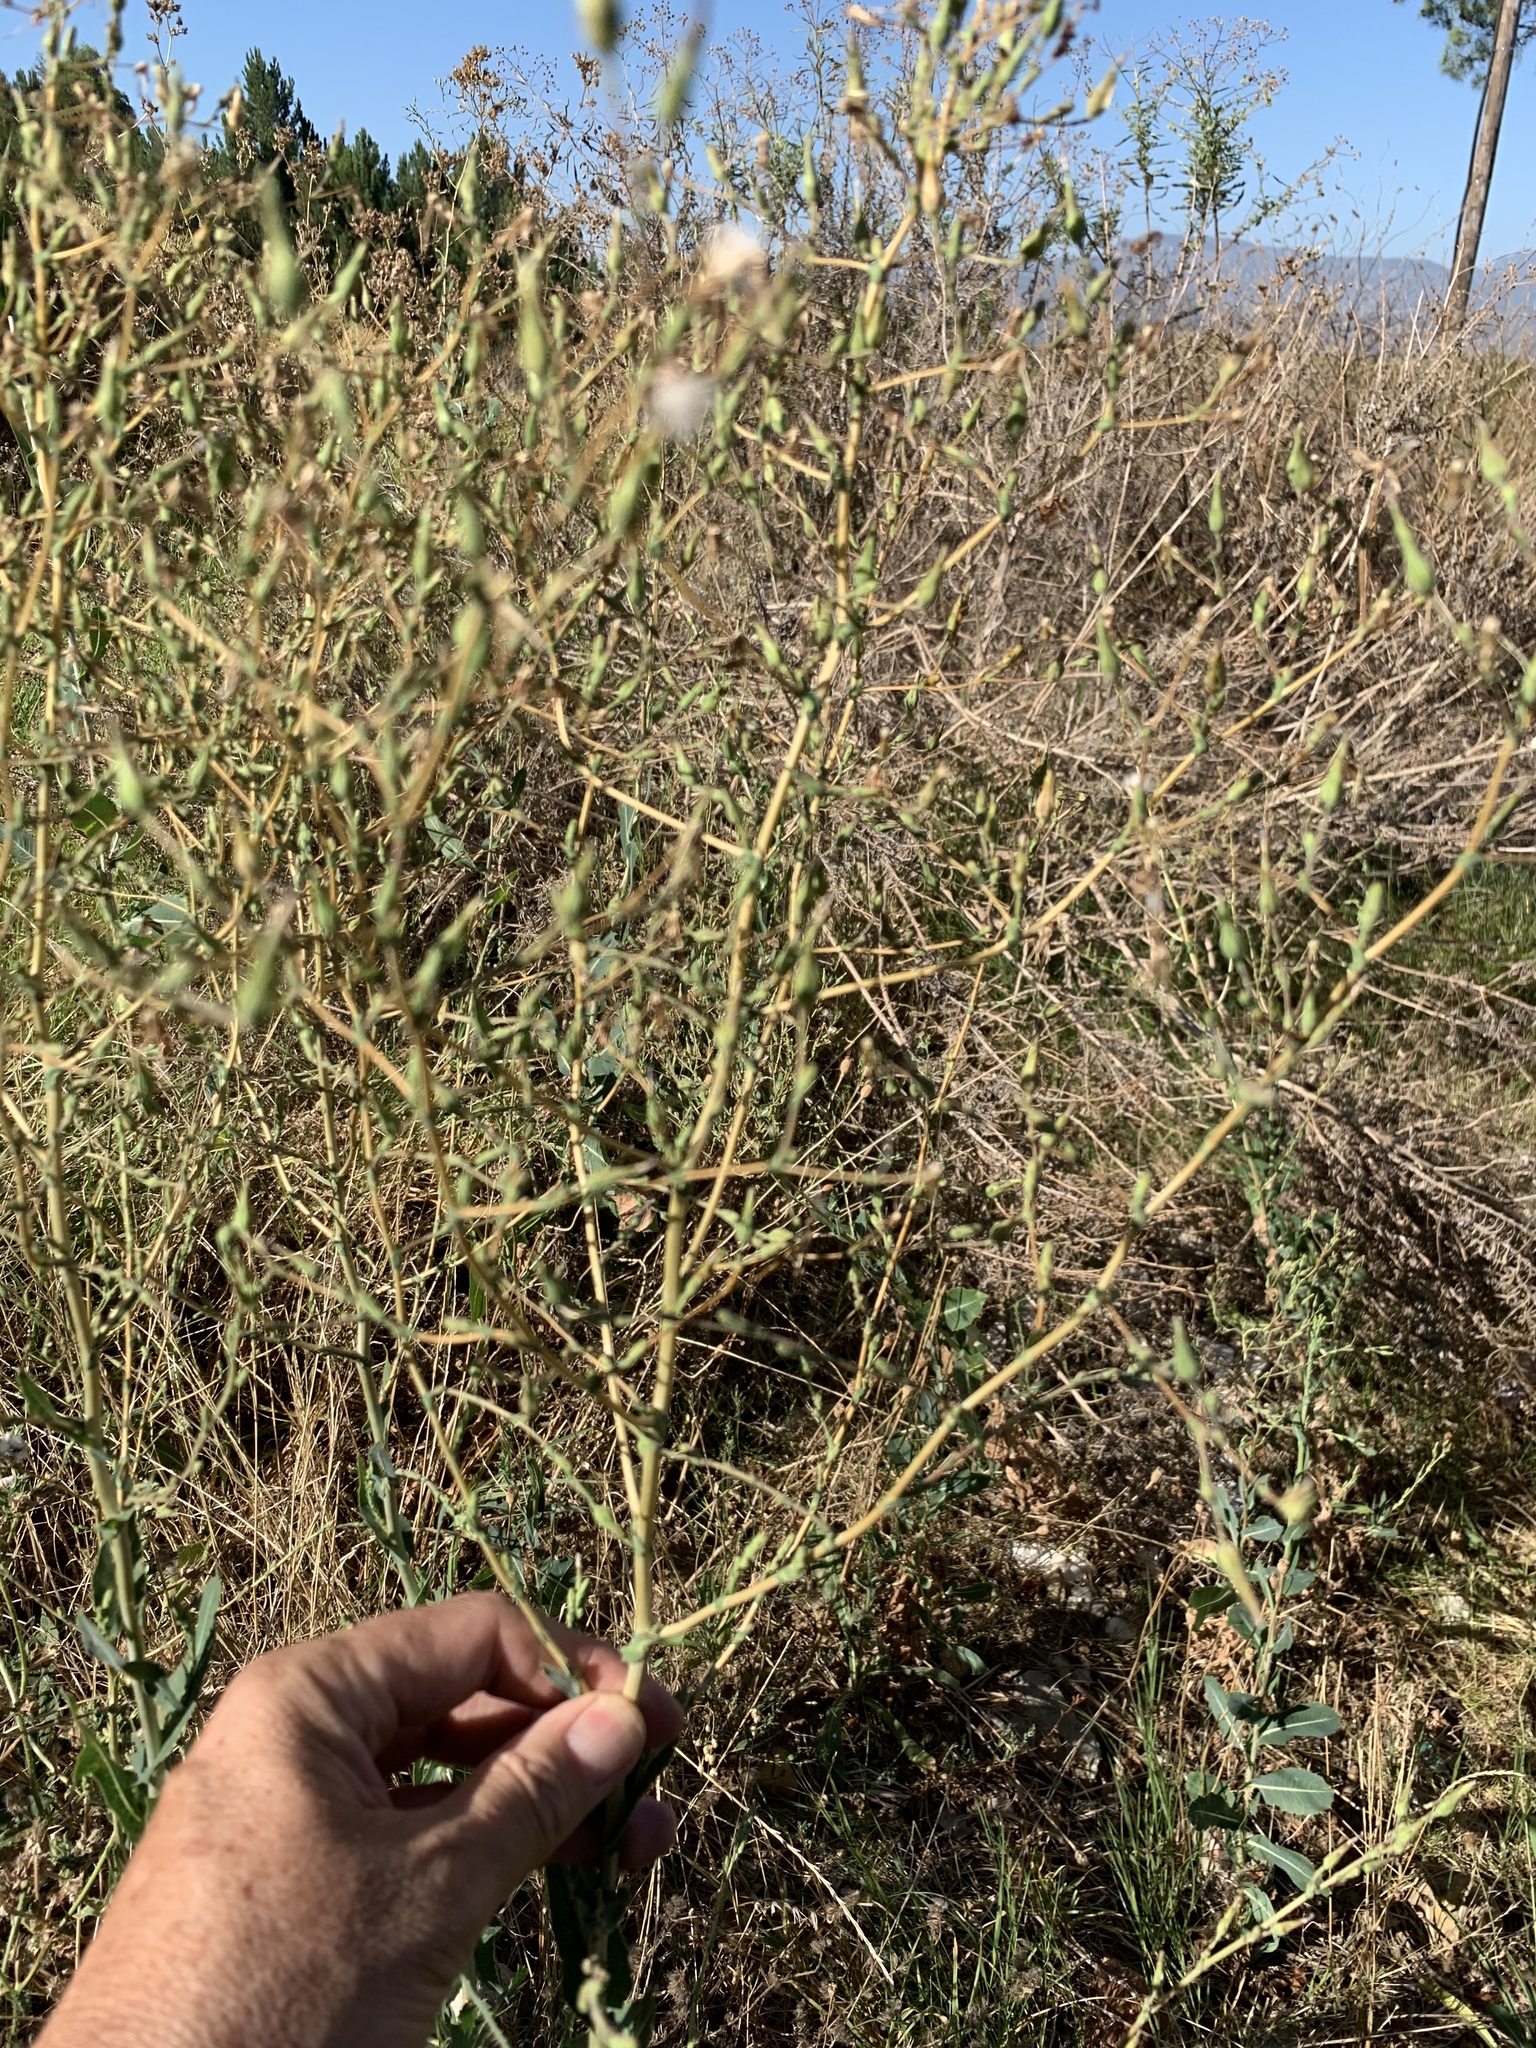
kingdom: Plantae
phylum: Tracheophyta
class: Magnoliopsida
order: Asterales
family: Asteraceae
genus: Lactuca
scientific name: Lactuca serriola
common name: Prickly lettuce
